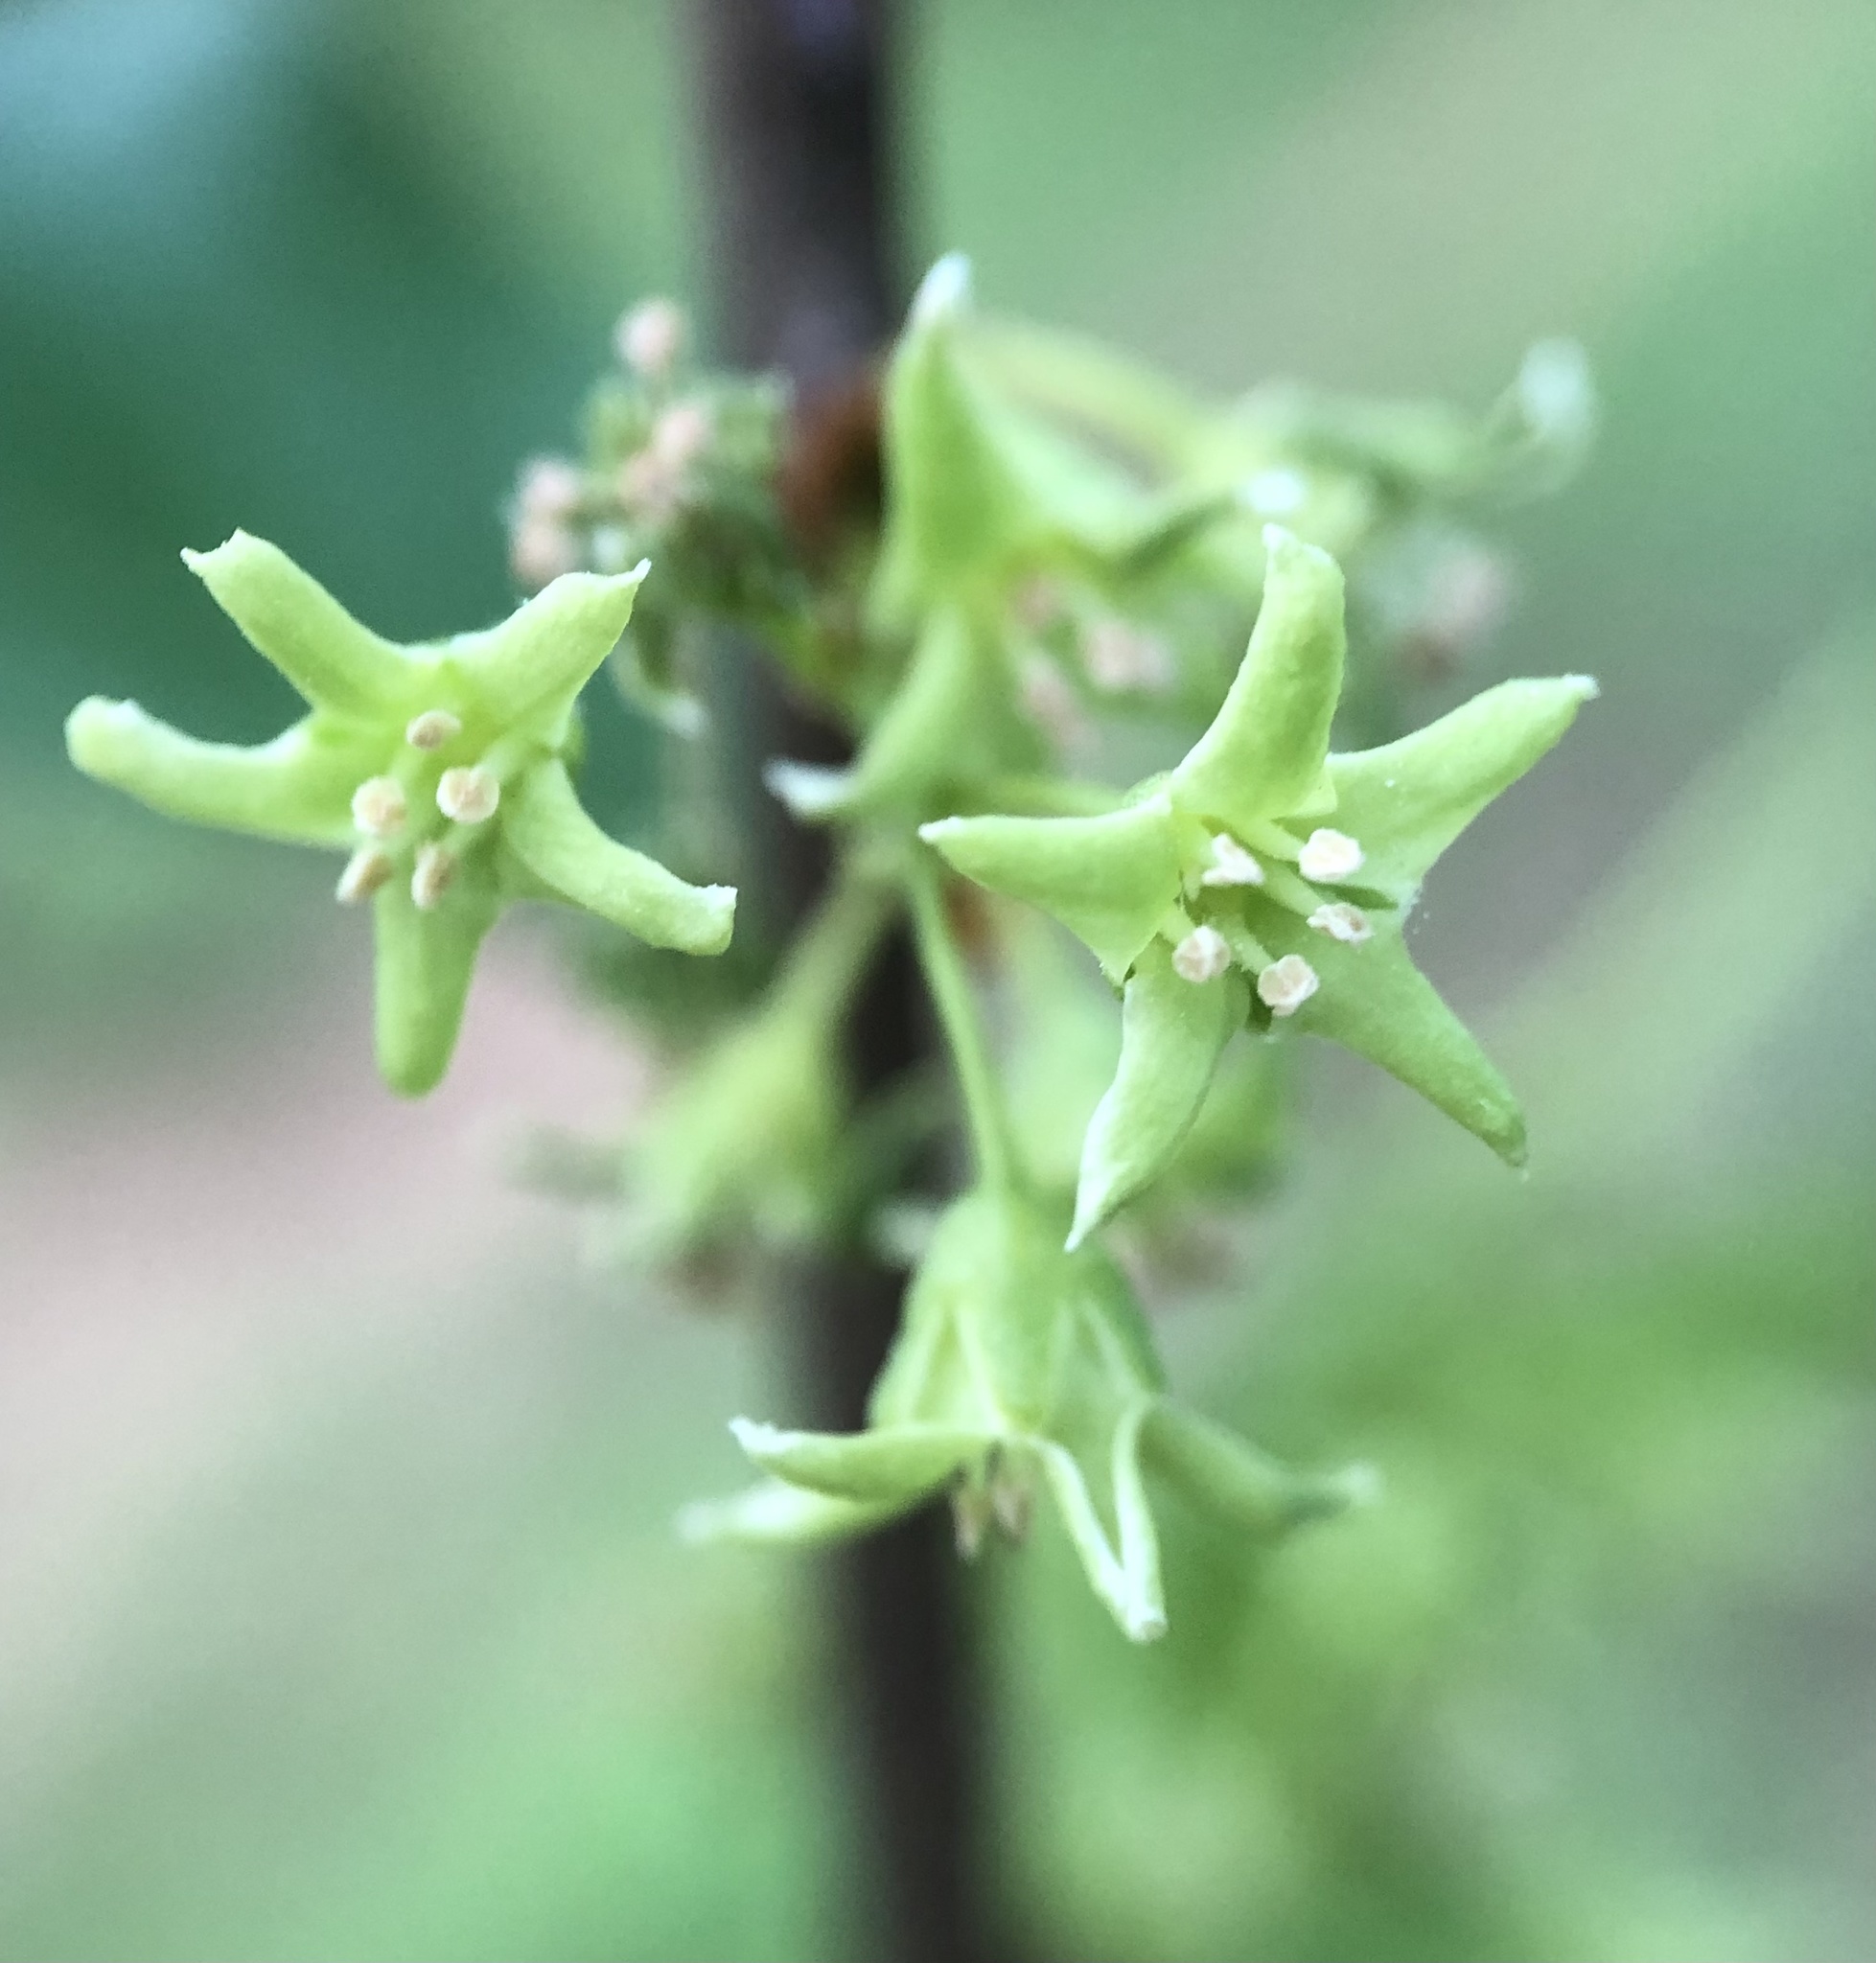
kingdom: Plantae
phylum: Tracheophyta
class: Magnoliopsida
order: Celastrales
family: Celastraceae
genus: Celastrus
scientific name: Celastrus orbiculatus
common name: Oriental bittersweet
